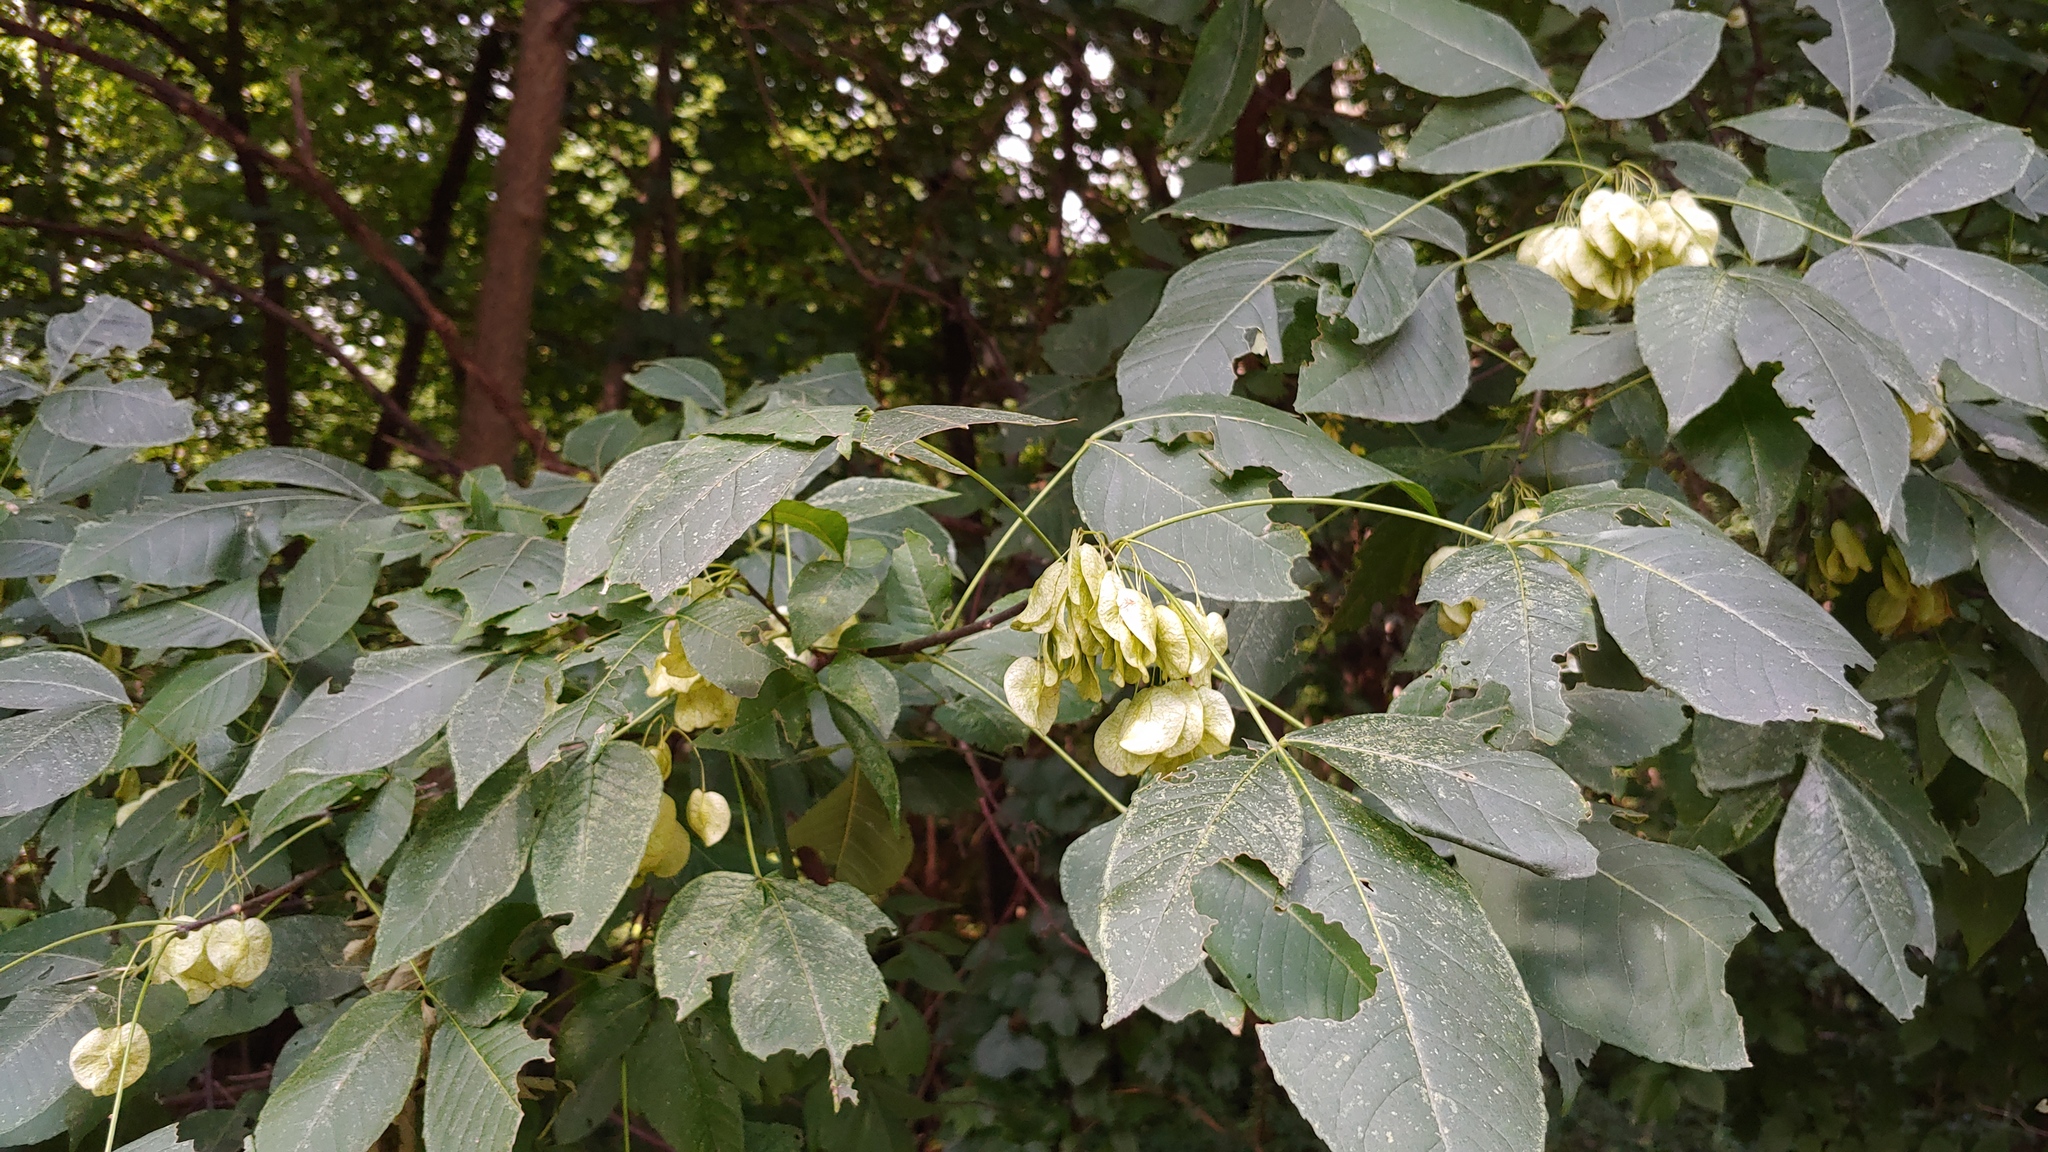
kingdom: Plantae
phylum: Tracheophyta
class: Magnoliopsida
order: Sapindales
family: Rutaceae
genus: Ptelea
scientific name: Ptelea trifoliata
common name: Common hop-tree
